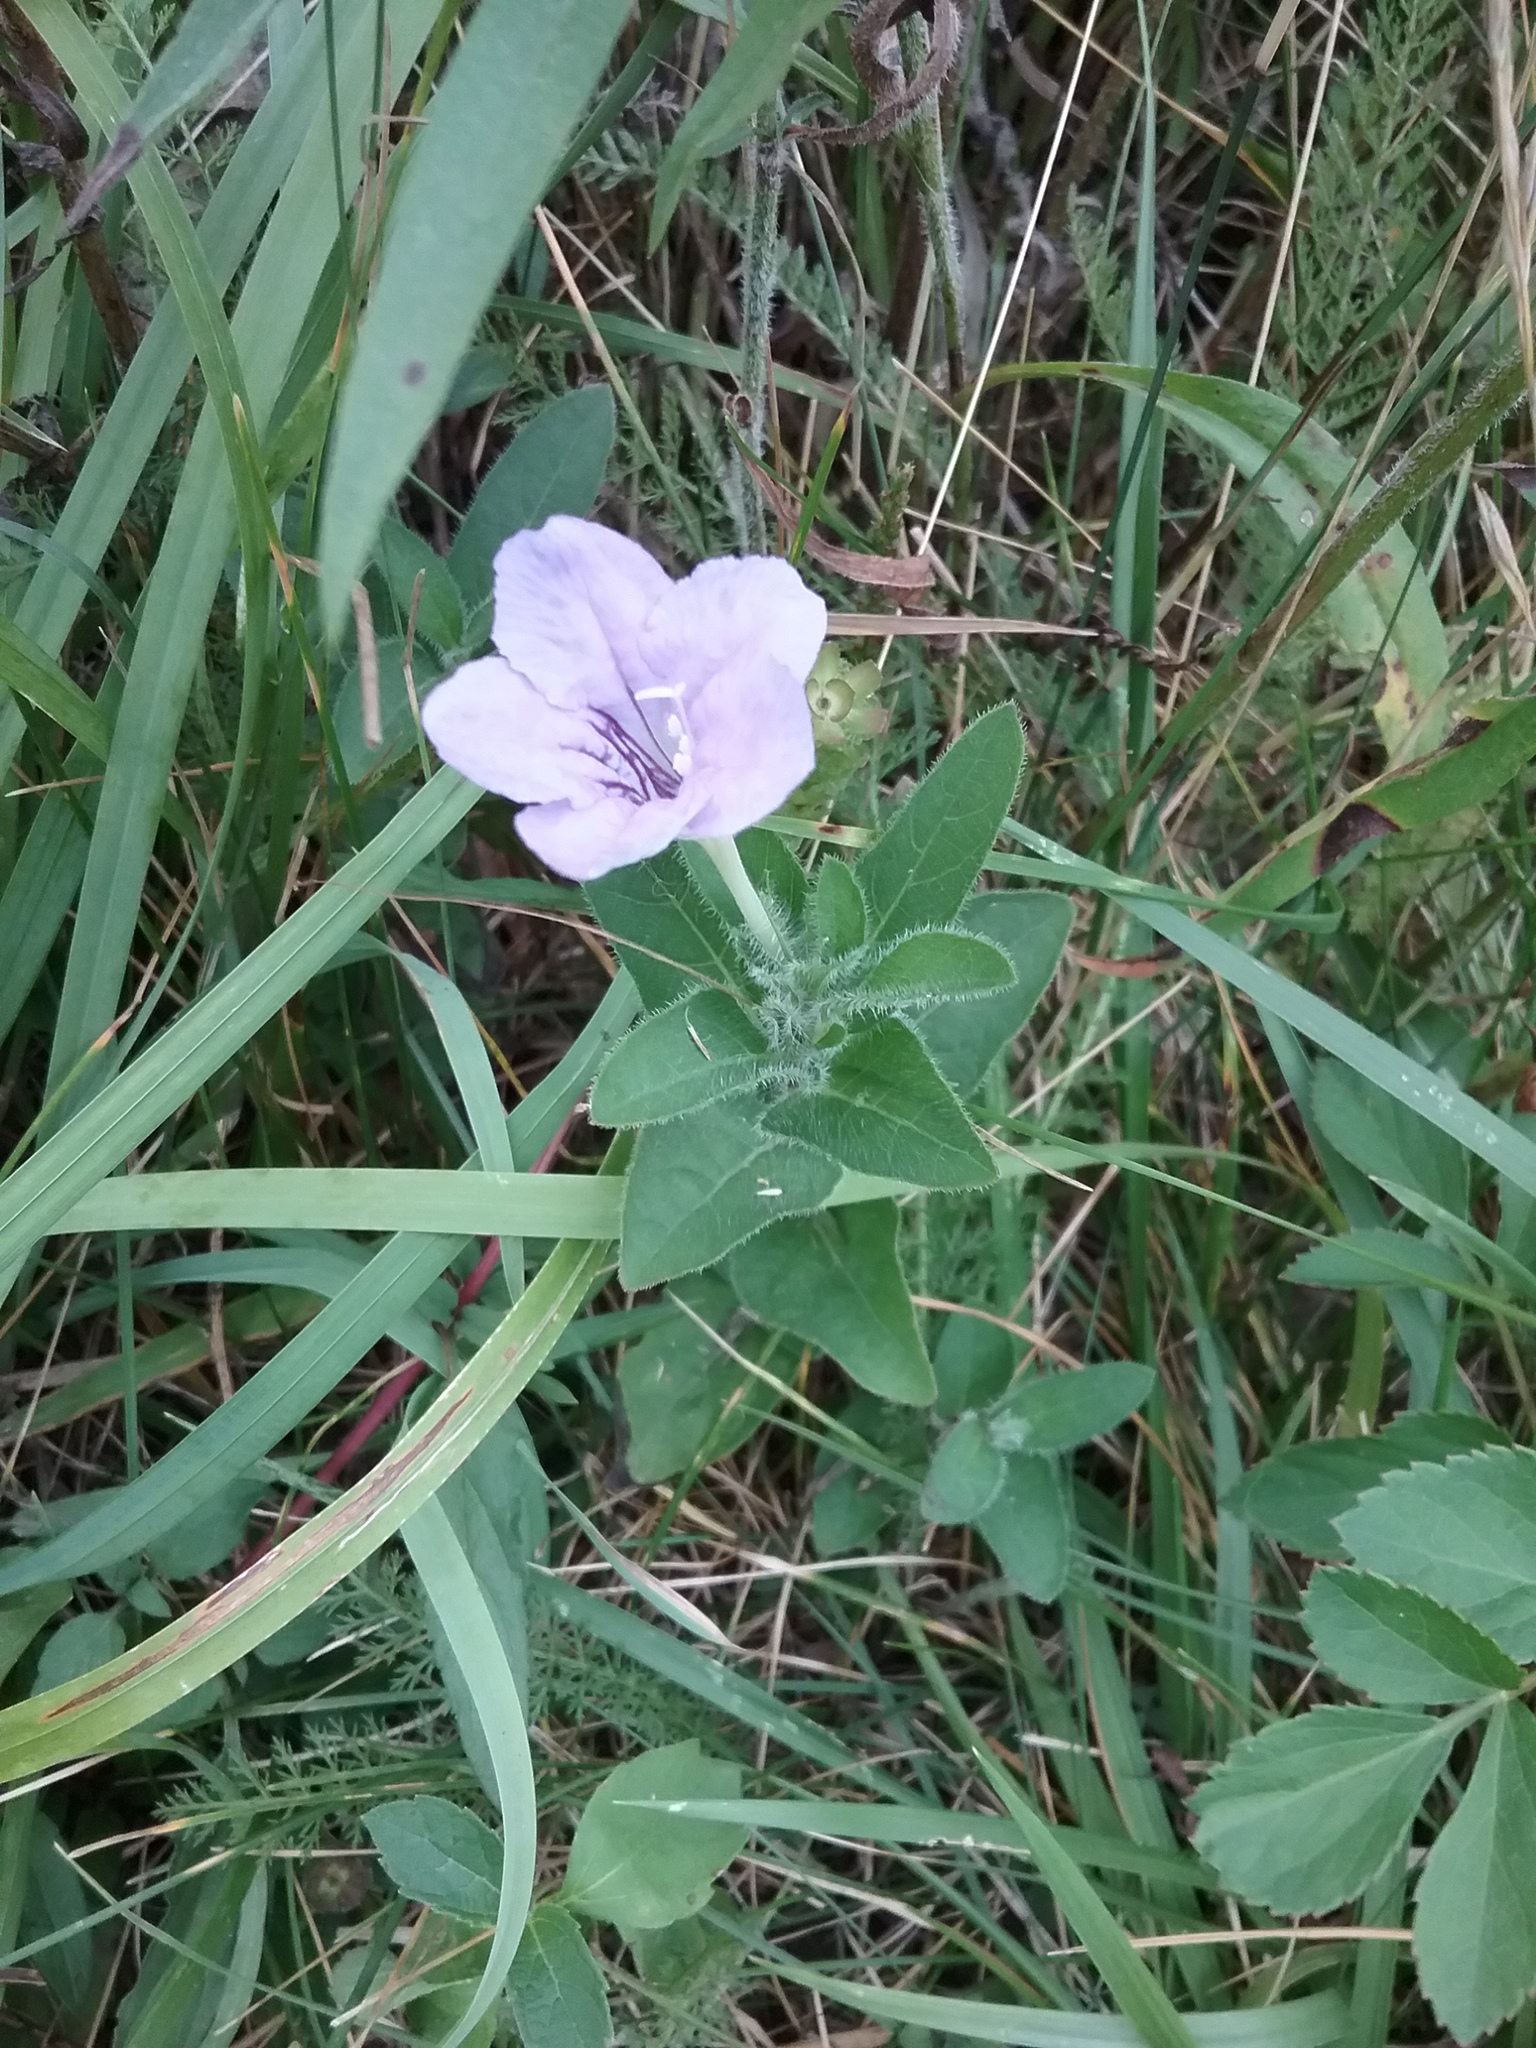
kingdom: Plantae
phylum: Tracheophyta
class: Magnoliopsida
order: Lamiales
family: Acanthaceae
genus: Ruellia
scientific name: Ruellia humilis
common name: Fringe-leaf ruellia
